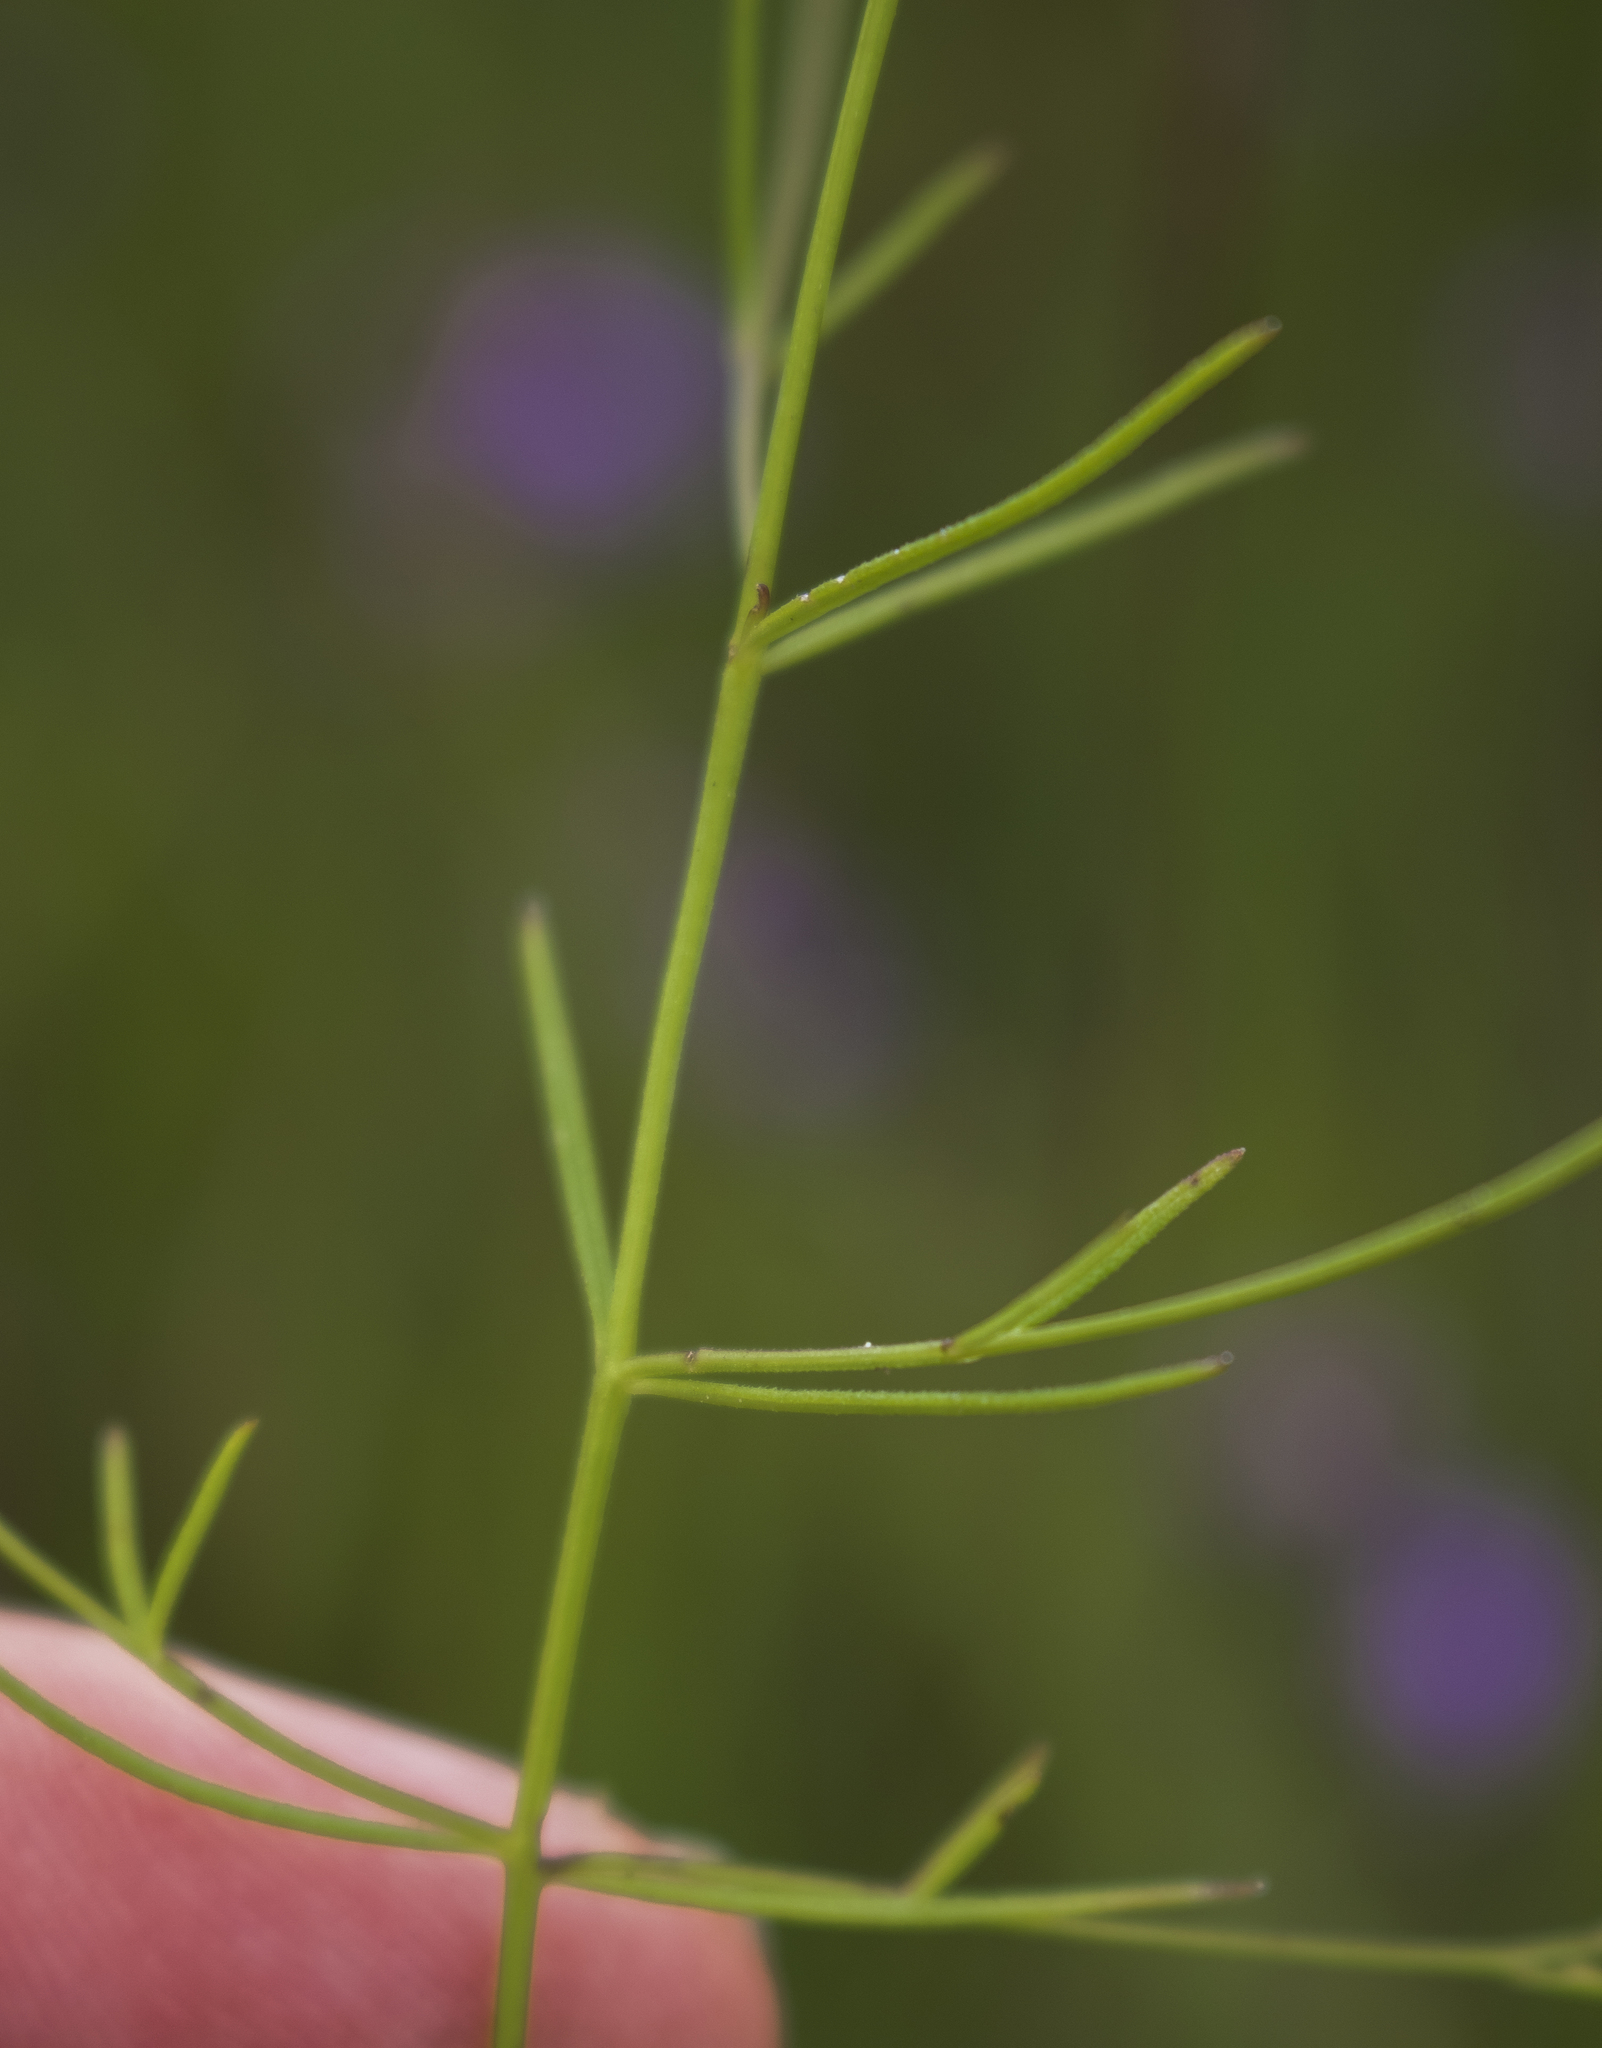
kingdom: Plantae
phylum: Tracheophyta
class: Magnoliopsida
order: Lamiales
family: Orobanchaceae
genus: Agalinis
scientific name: Agalinis gattingeri
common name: Gattinger's agalinis
